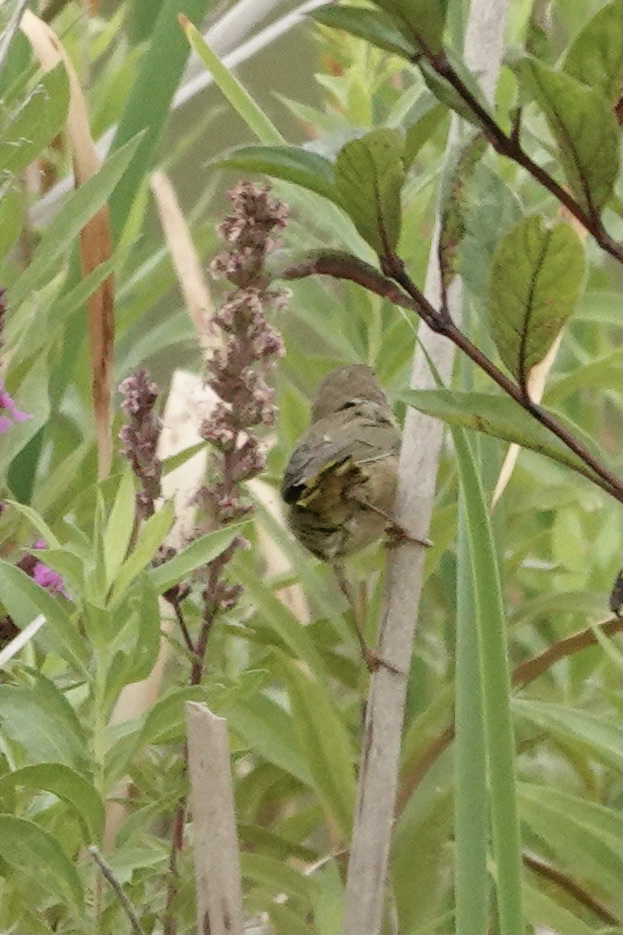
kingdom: Animalia
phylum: Chordata
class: Aves
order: Passeriformes
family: Parulidae
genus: Geothlypis
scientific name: Geothlypis trichas
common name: Common yellowthroat
